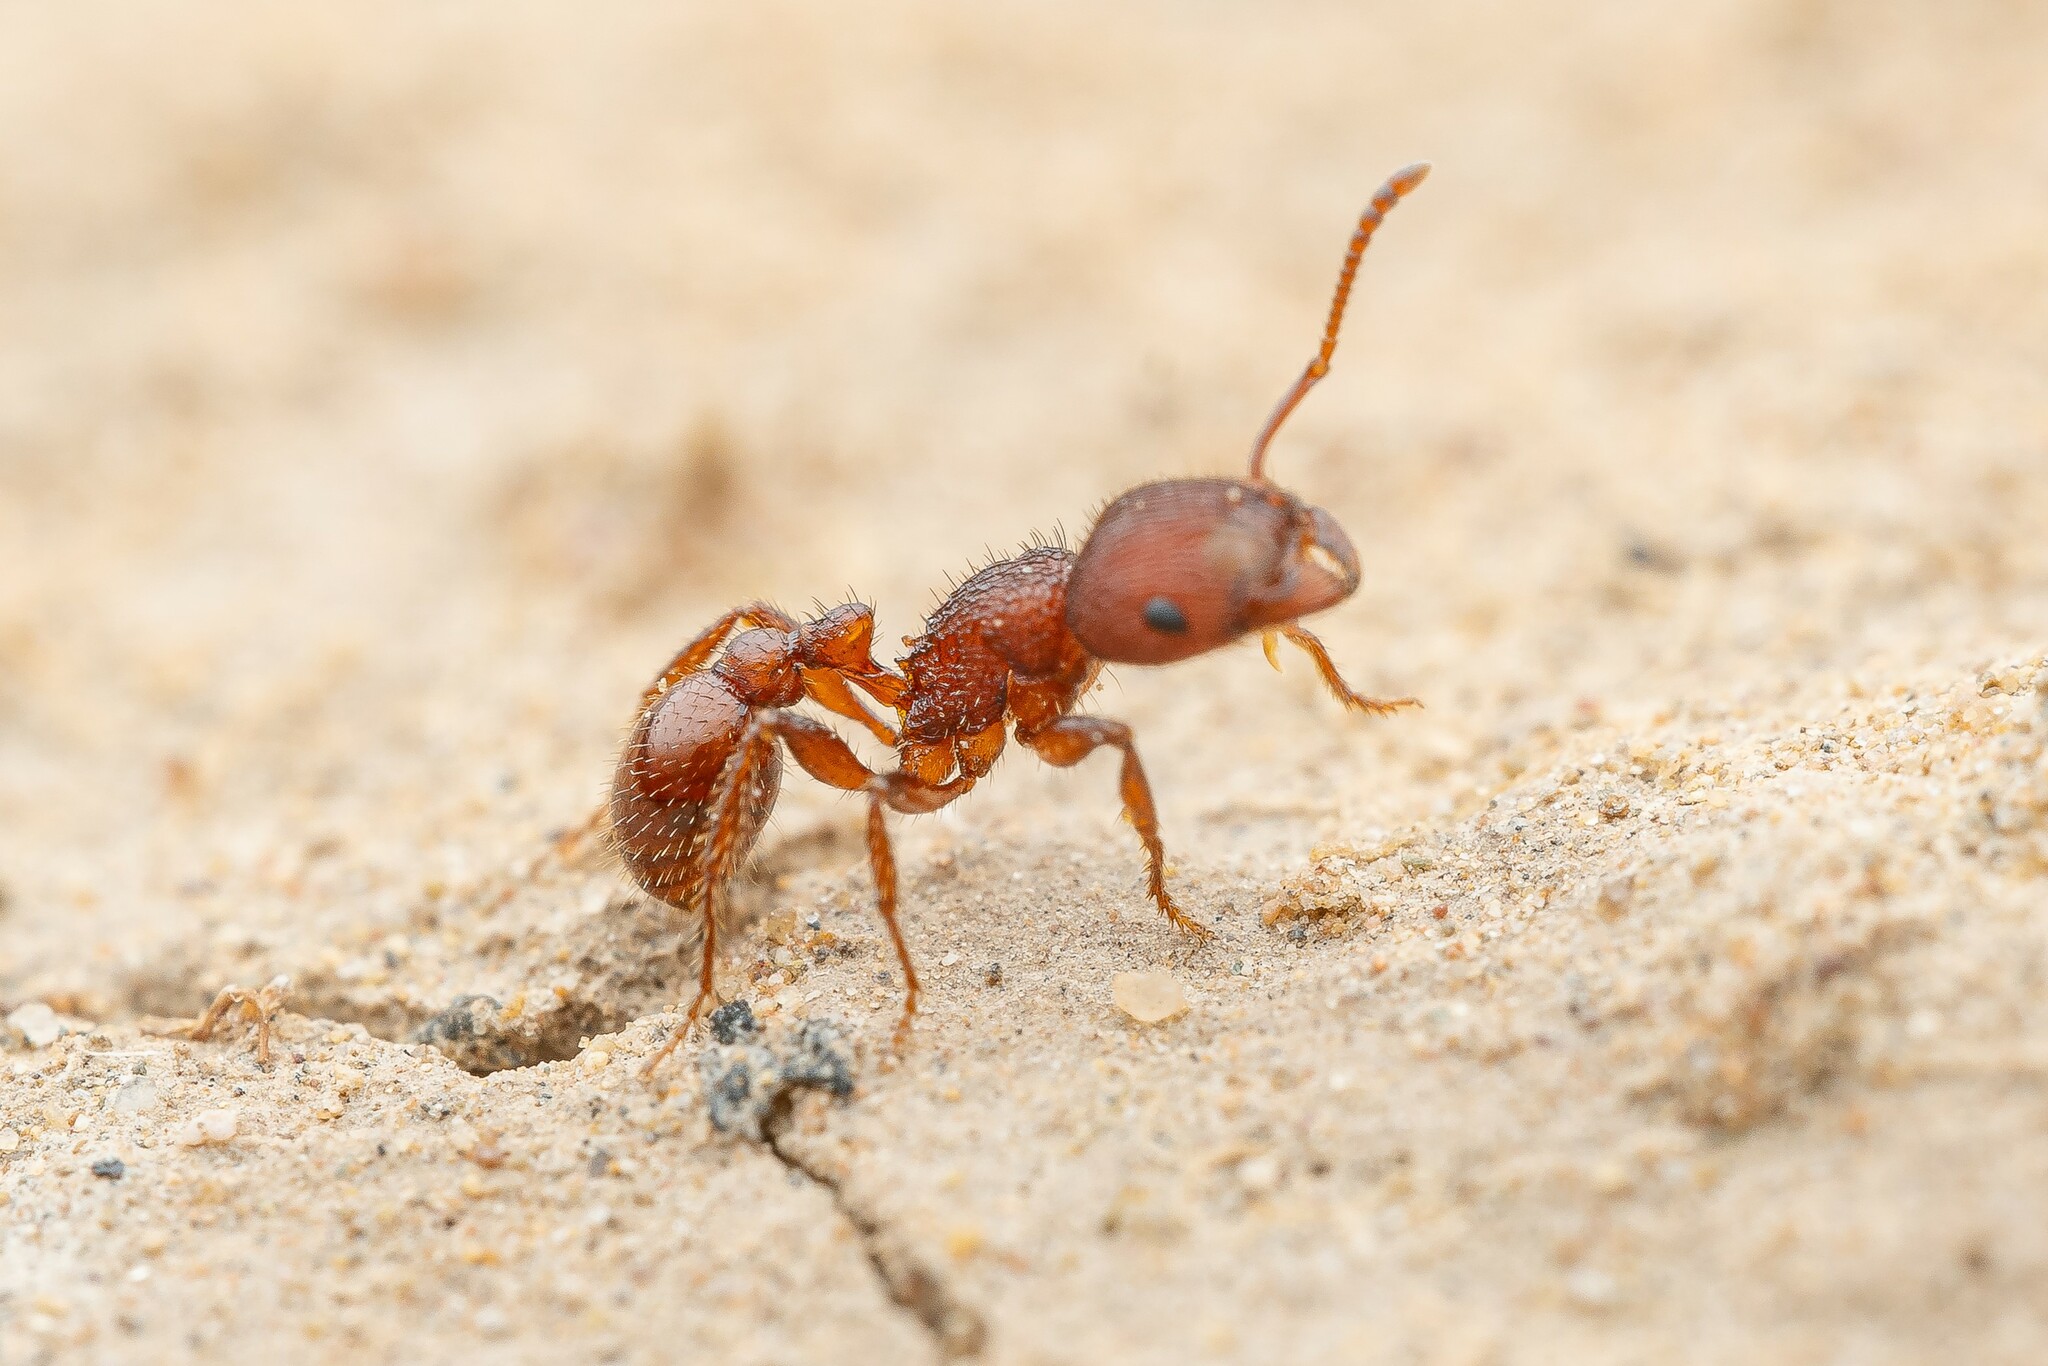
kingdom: Animalia
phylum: Arthropoda
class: Insecta
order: Hymenoptera
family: Formicidae
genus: Pogonomyrmex
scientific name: Pogonomyrmex pima
